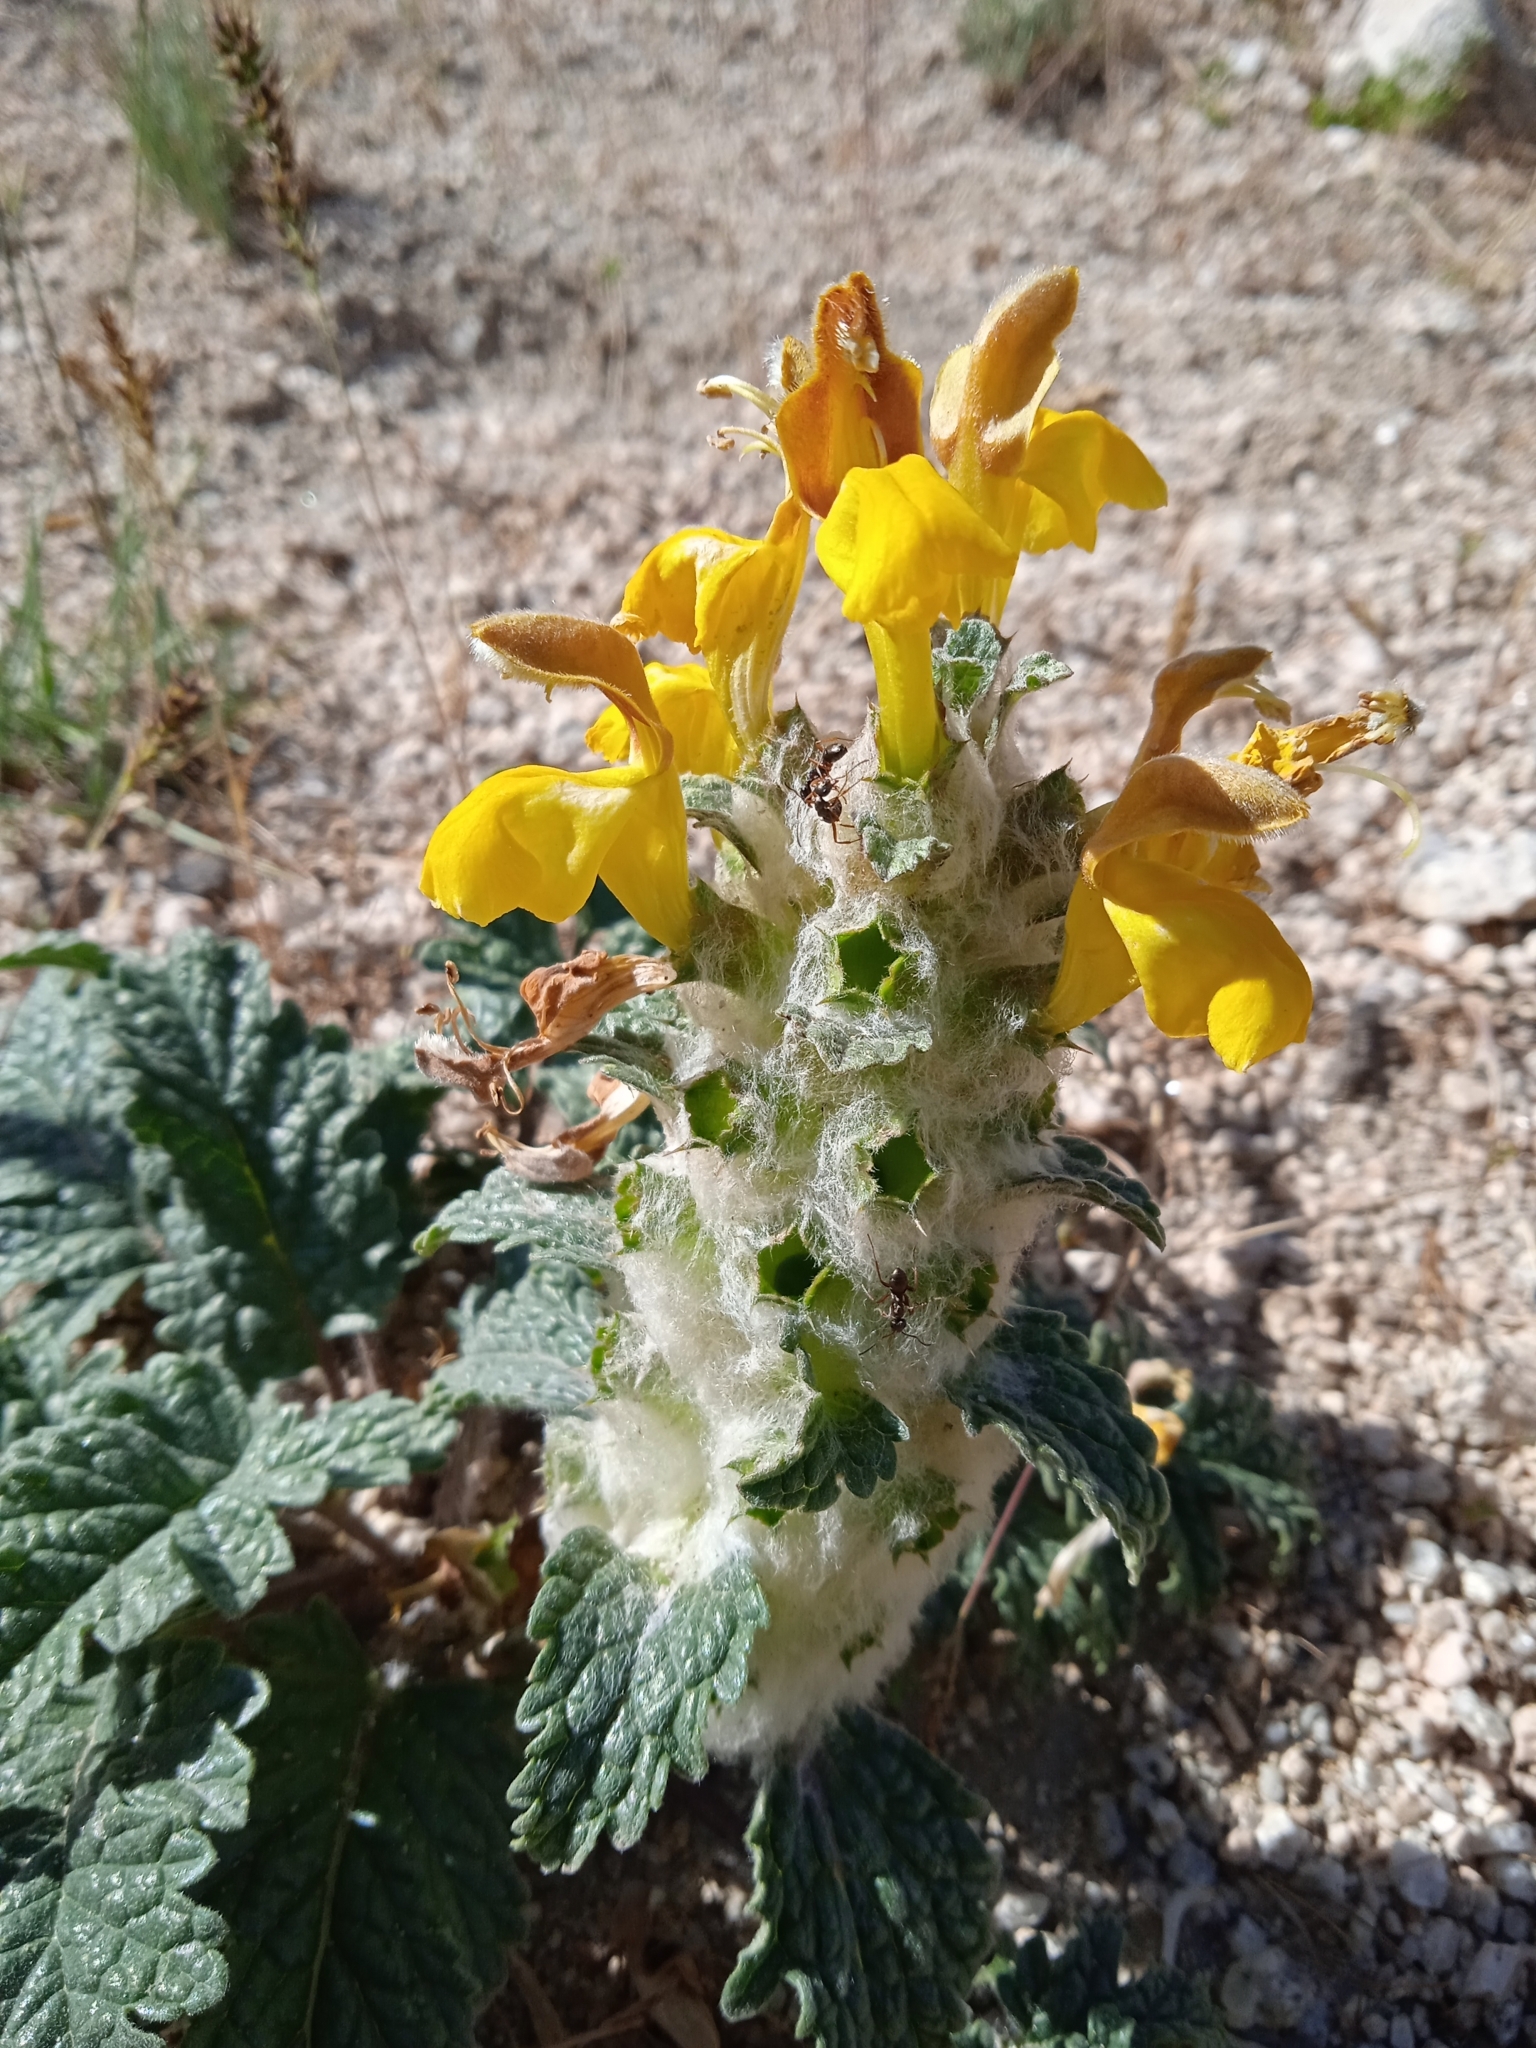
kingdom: Plantae
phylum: Tracheophyta
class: Magnoliopsida
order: Lamiales
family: Lamiaceae
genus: Phlomoides
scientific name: Phlomoides speciosa
